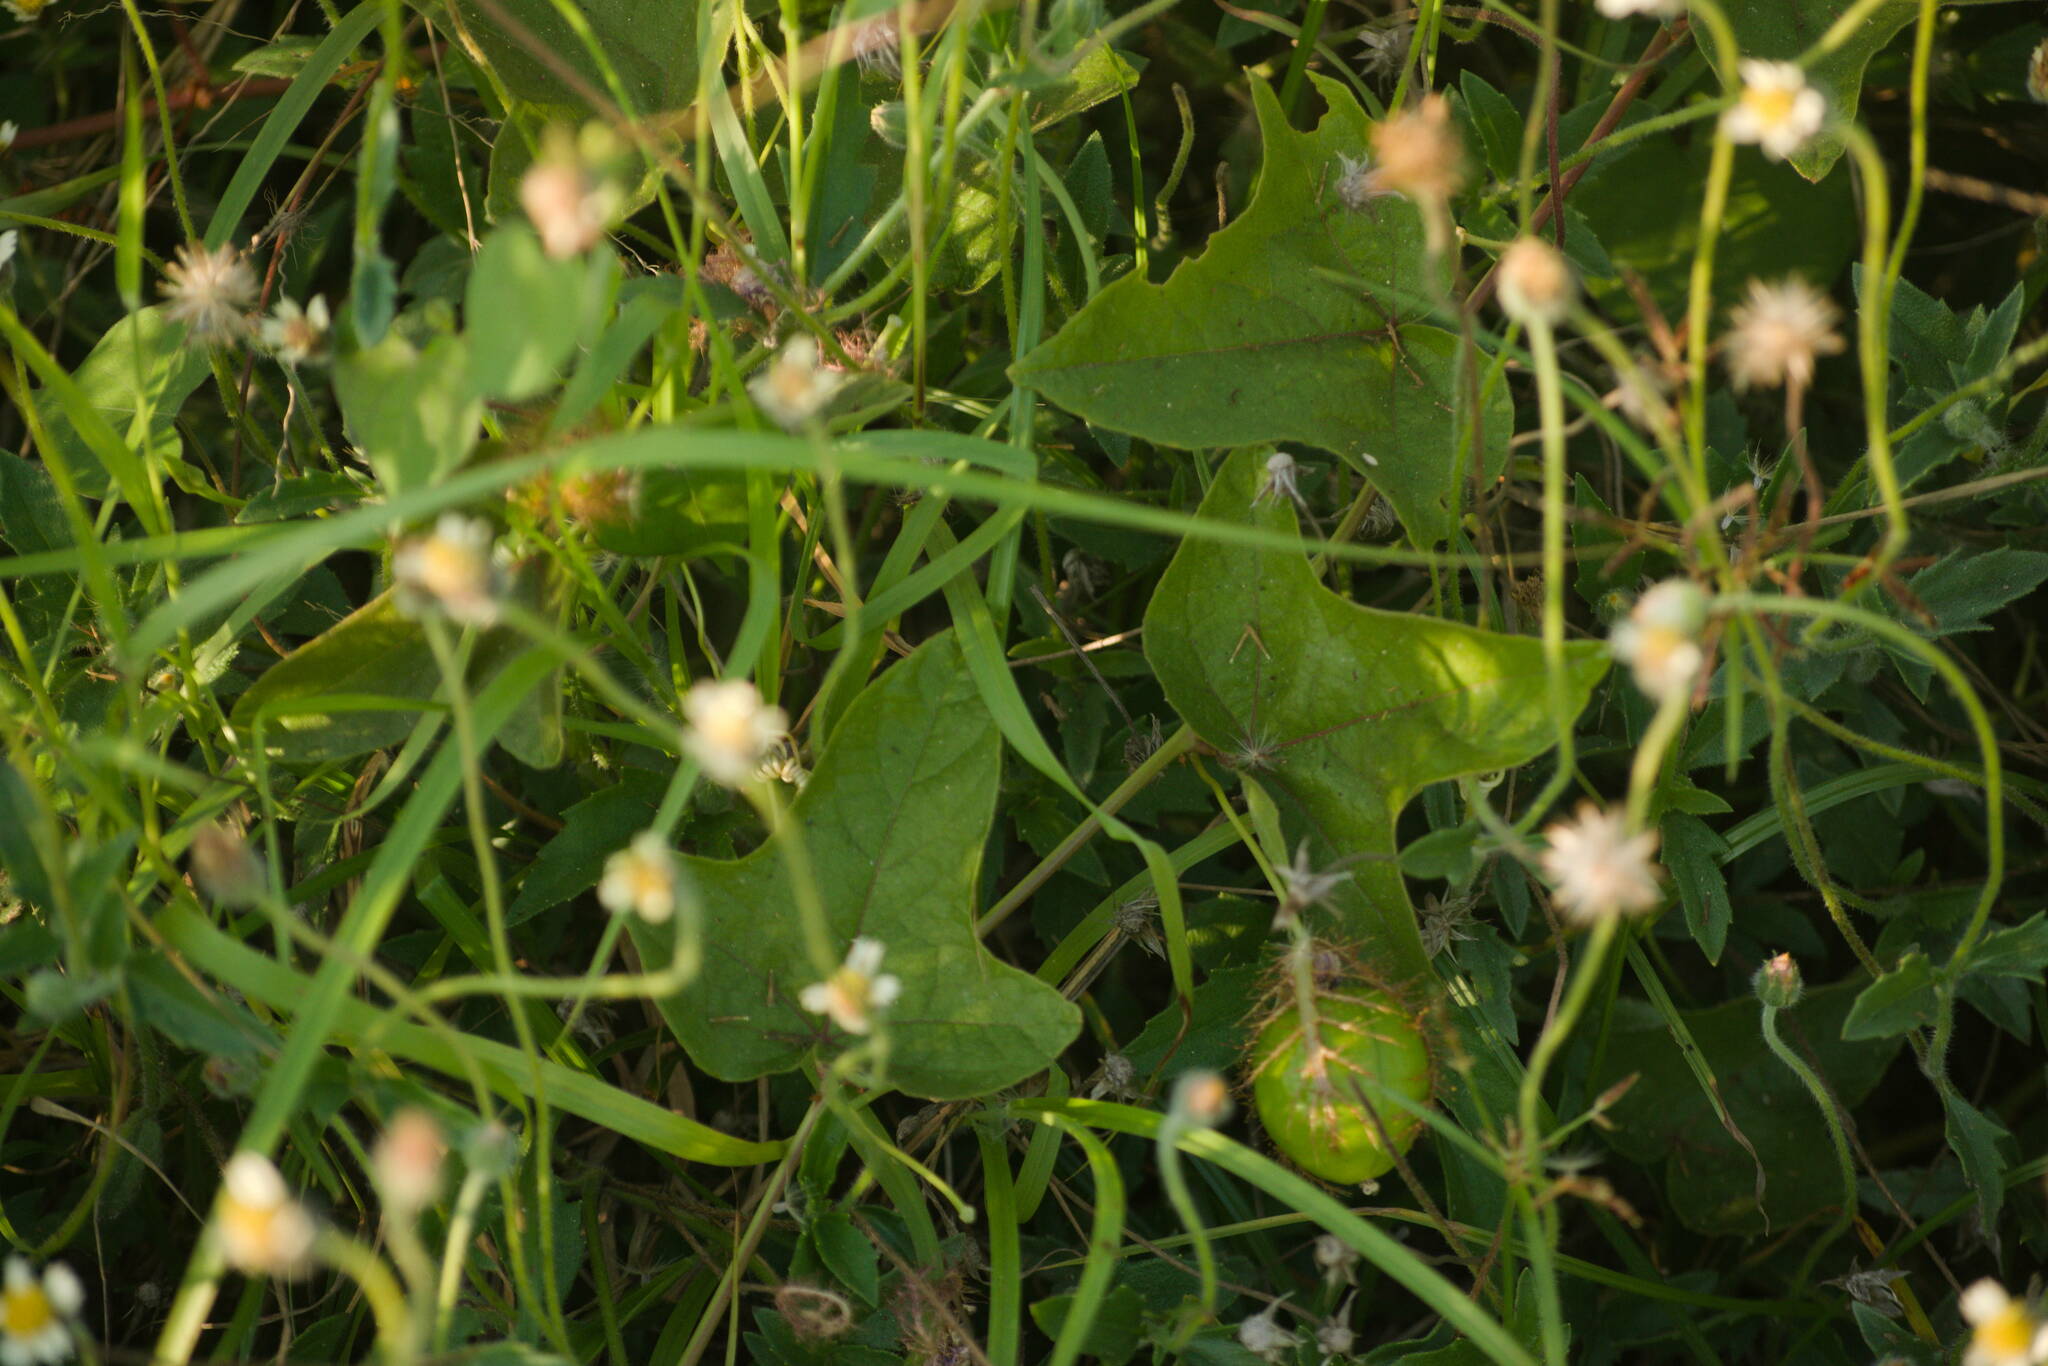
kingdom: Plantae
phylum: Tracheophyta
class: Magnoliopsida
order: Asterales
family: Asteraceae
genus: Tridax
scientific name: Tridax procumbens
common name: Coatbuttons
